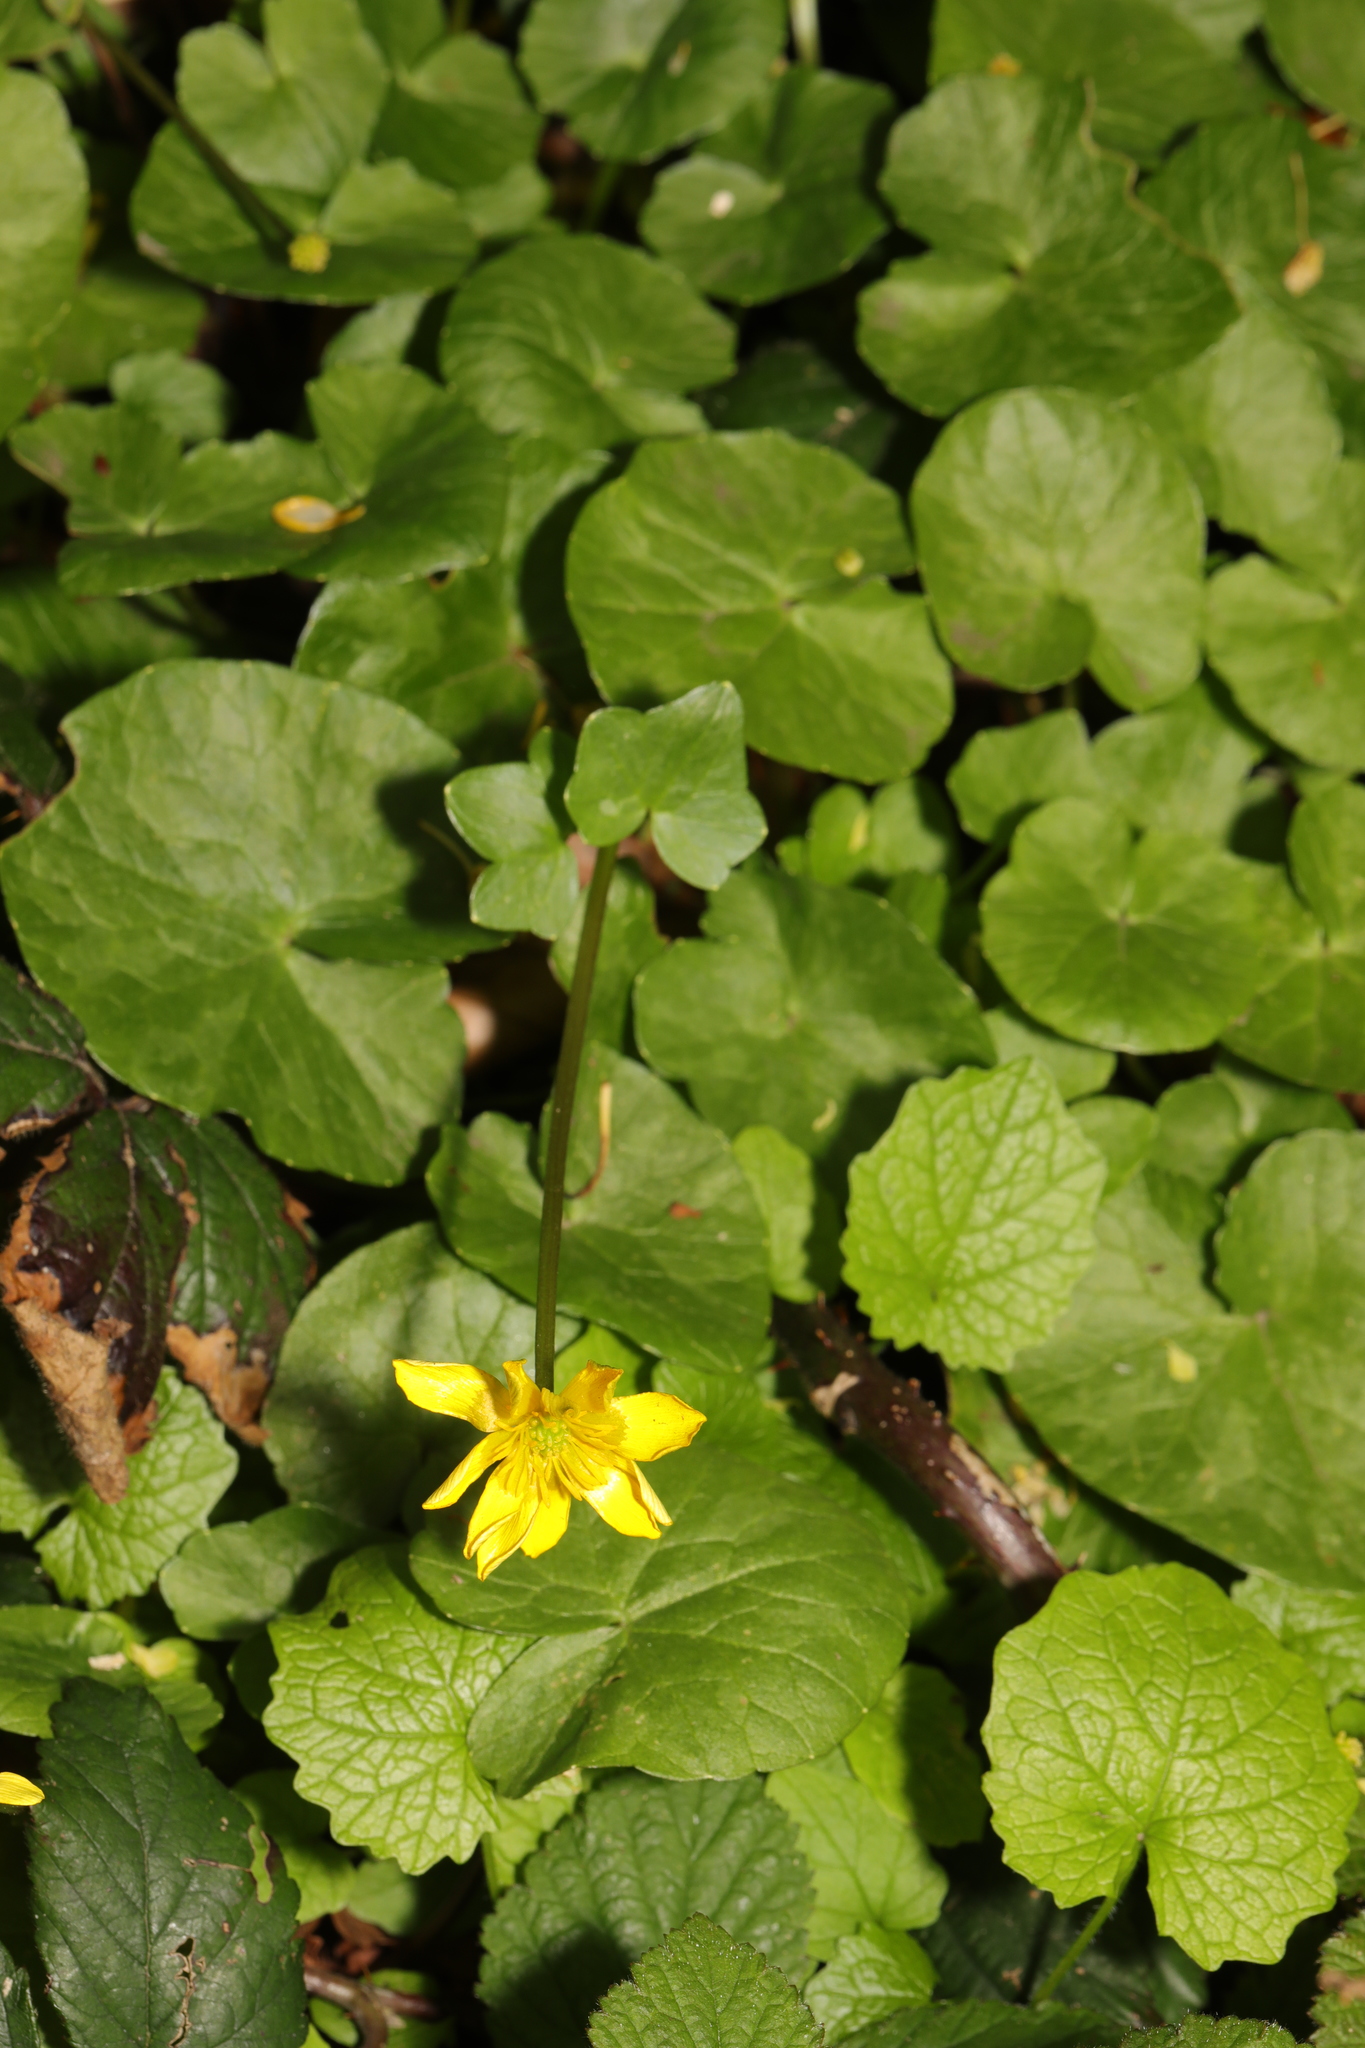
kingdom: Plantae
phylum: Tracheophyta
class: Magnoliopsida
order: Ranunculales
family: Ranunculaceae
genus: Ficaria
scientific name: Ficaria verna
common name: Lesser celandine
